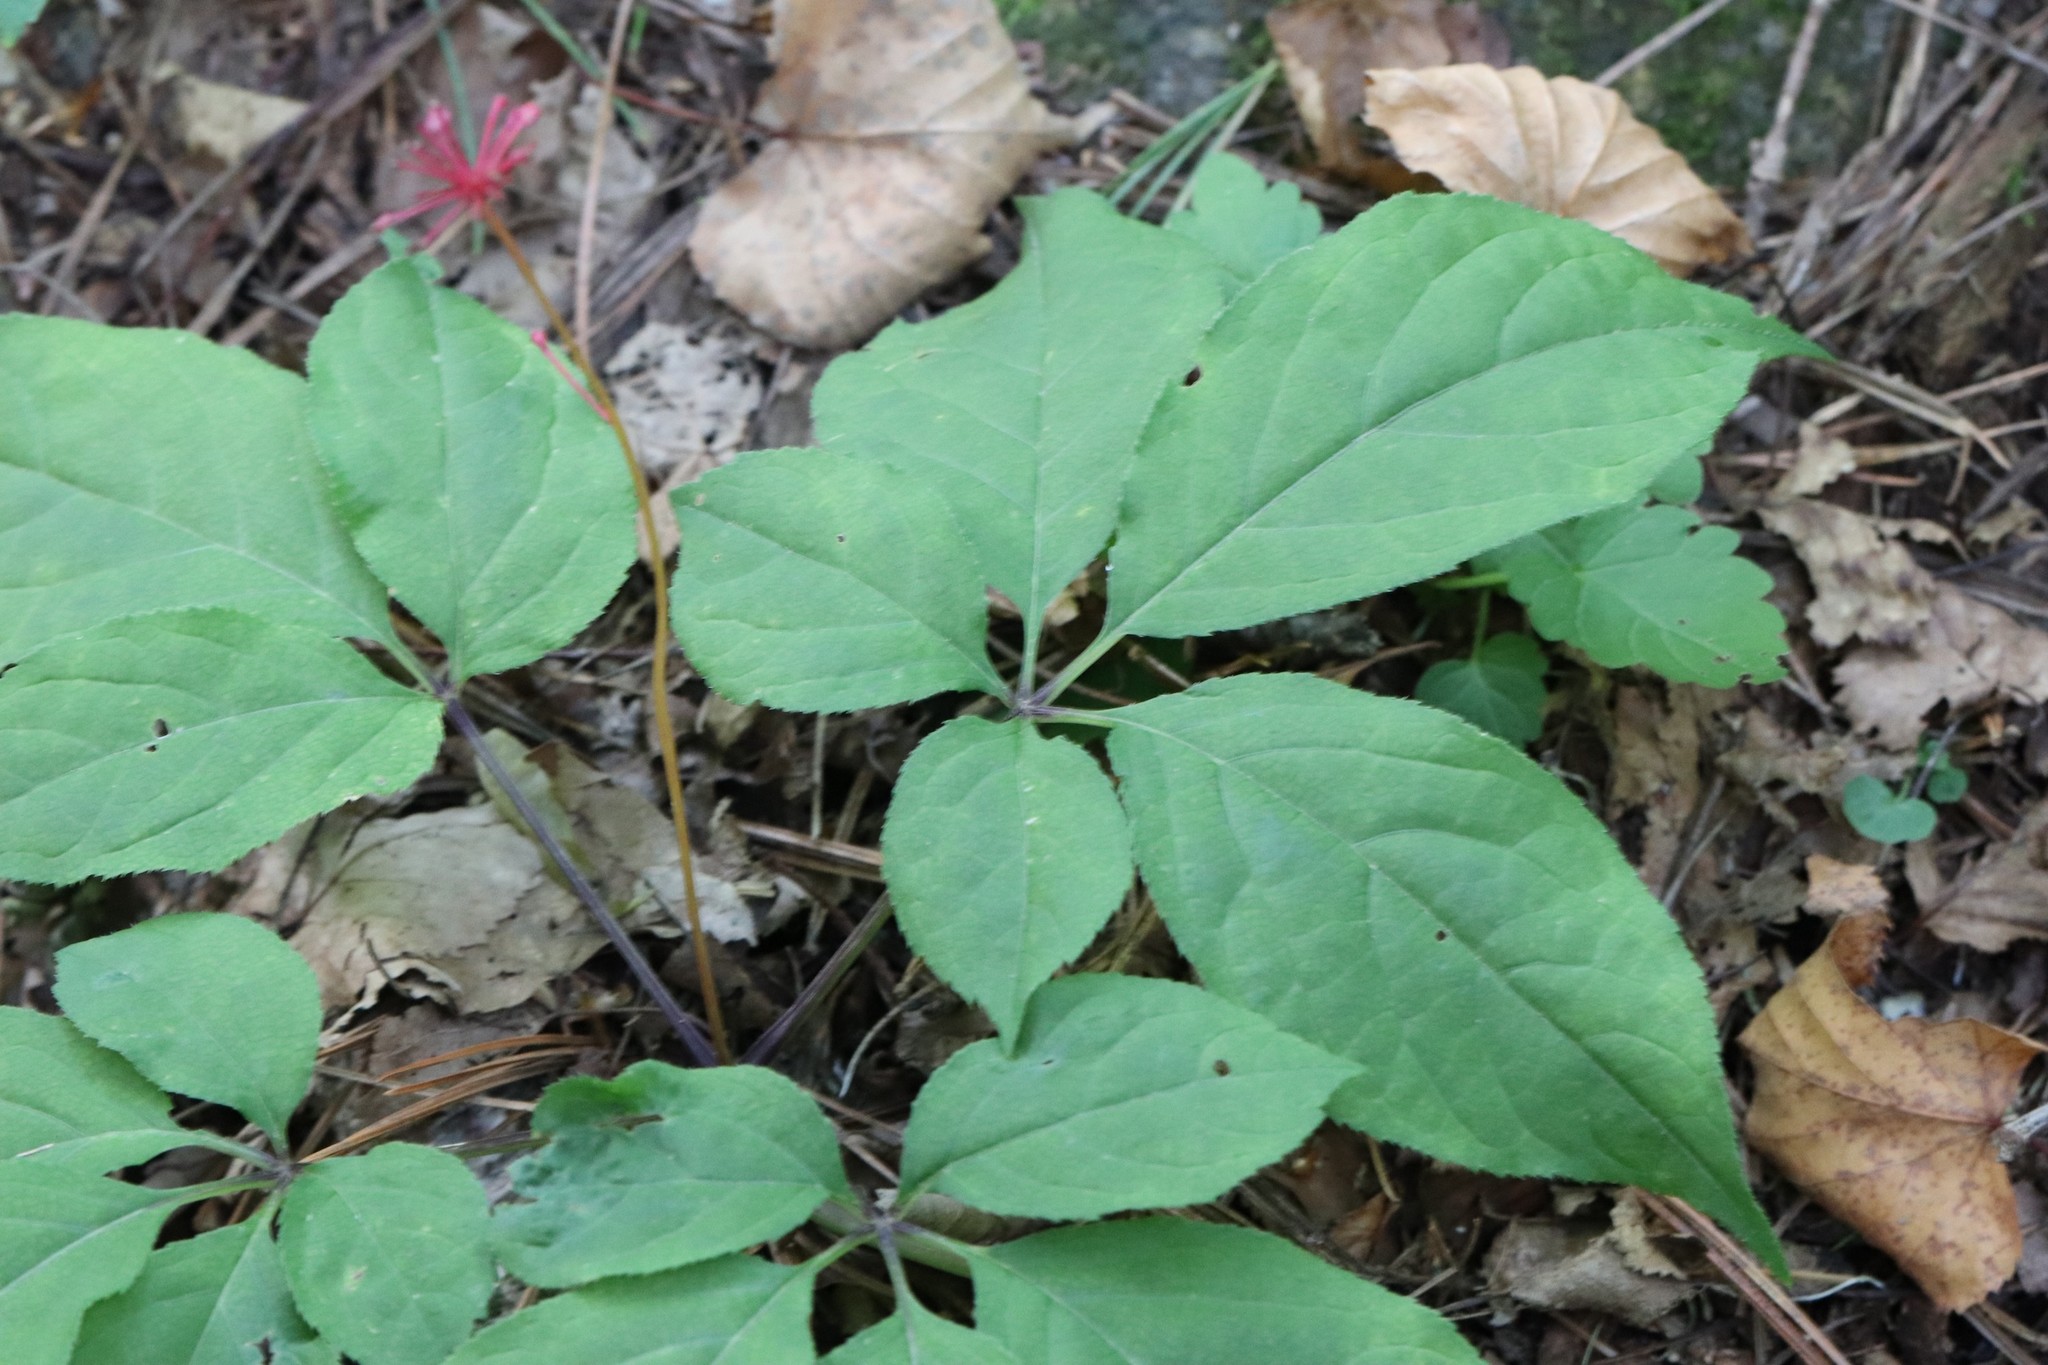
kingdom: Plantae
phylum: Tracheophyta
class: Magnoliopsida
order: Apiales
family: Araliaceae
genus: Panax
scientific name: Panax ginseng
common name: Chinese ginseng
